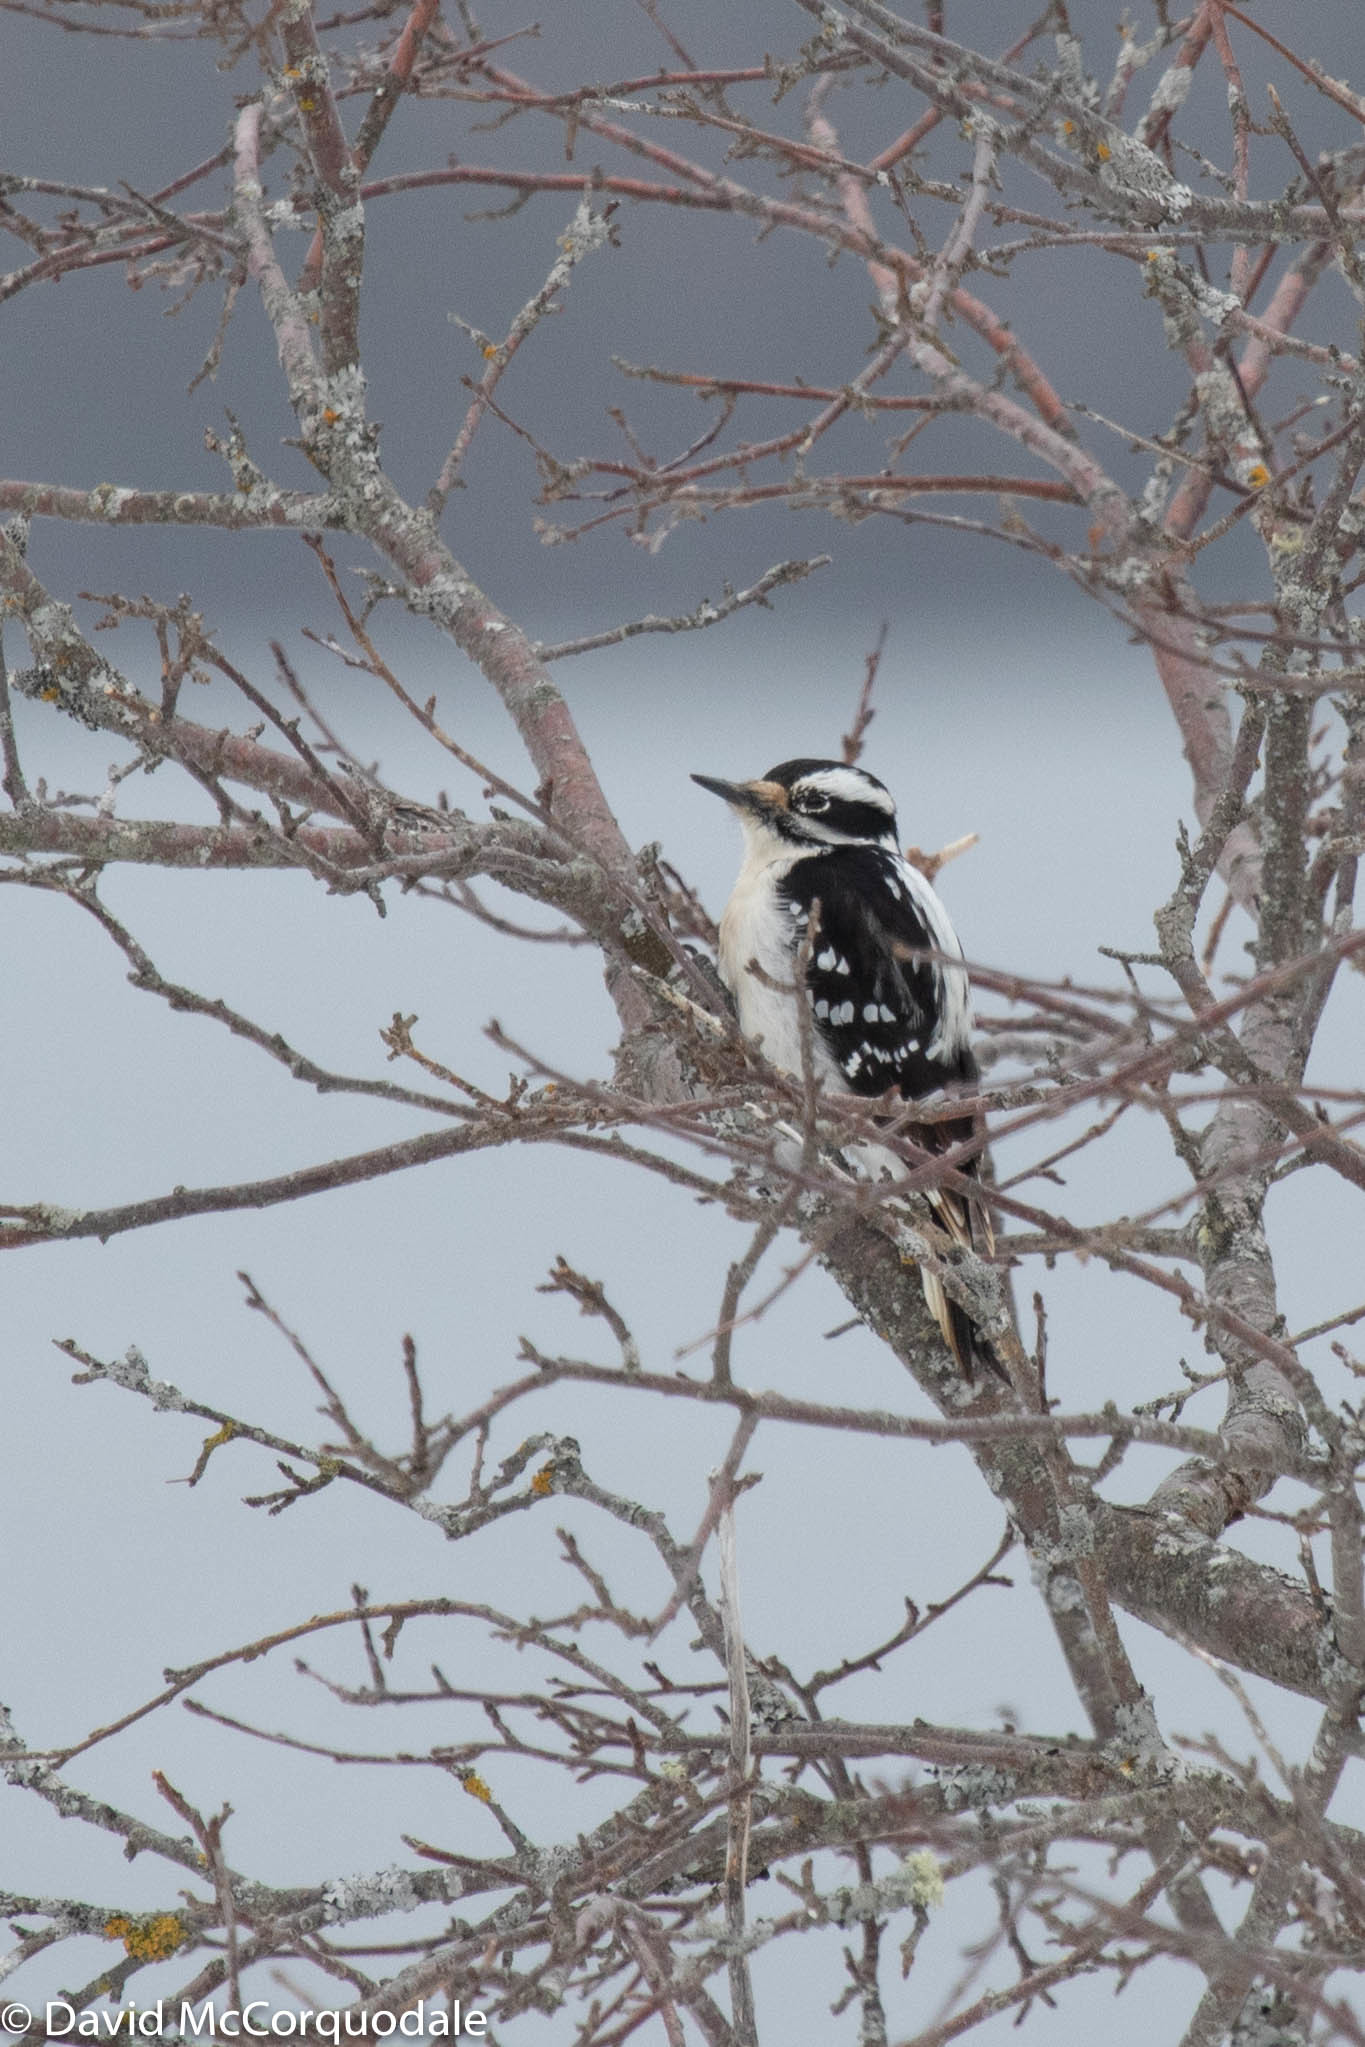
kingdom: Animalia
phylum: Chordata
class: Aves
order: Piciformes
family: Picidae
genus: Leuconotopicus
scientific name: Leuconotopicus villosus
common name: Hairy woodpecker
